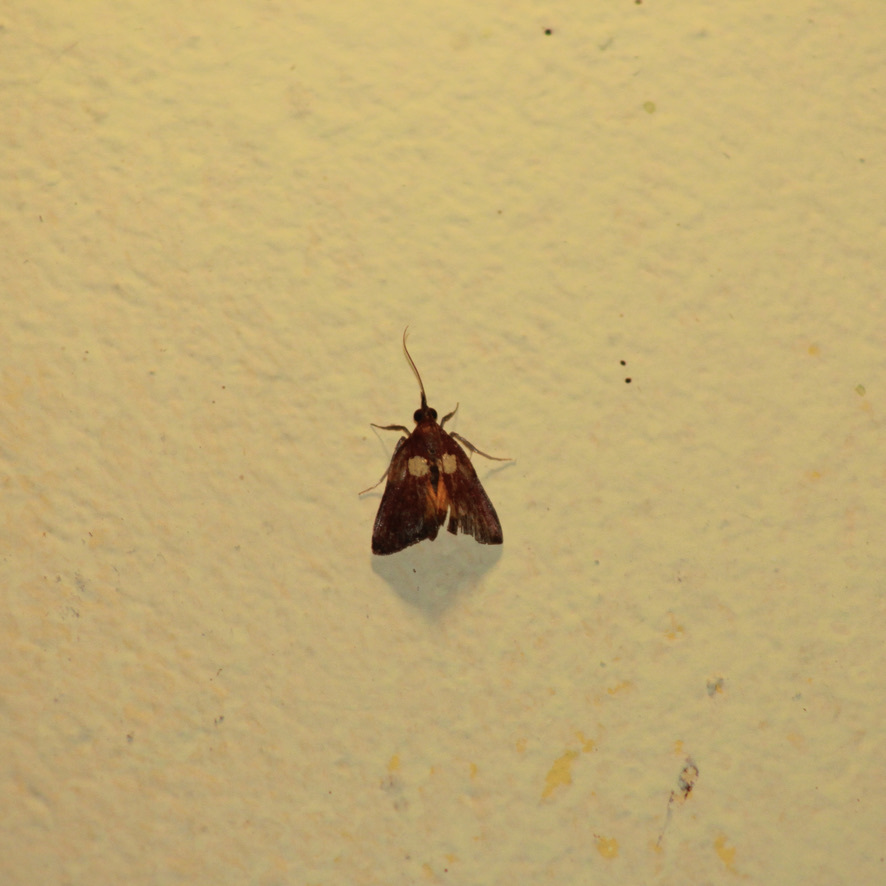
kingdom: Animalia
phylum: Arthropoda
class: Insecta
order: Lepidoptera
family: Pyralidae
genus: Semnia
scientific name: Semnia auritalis
